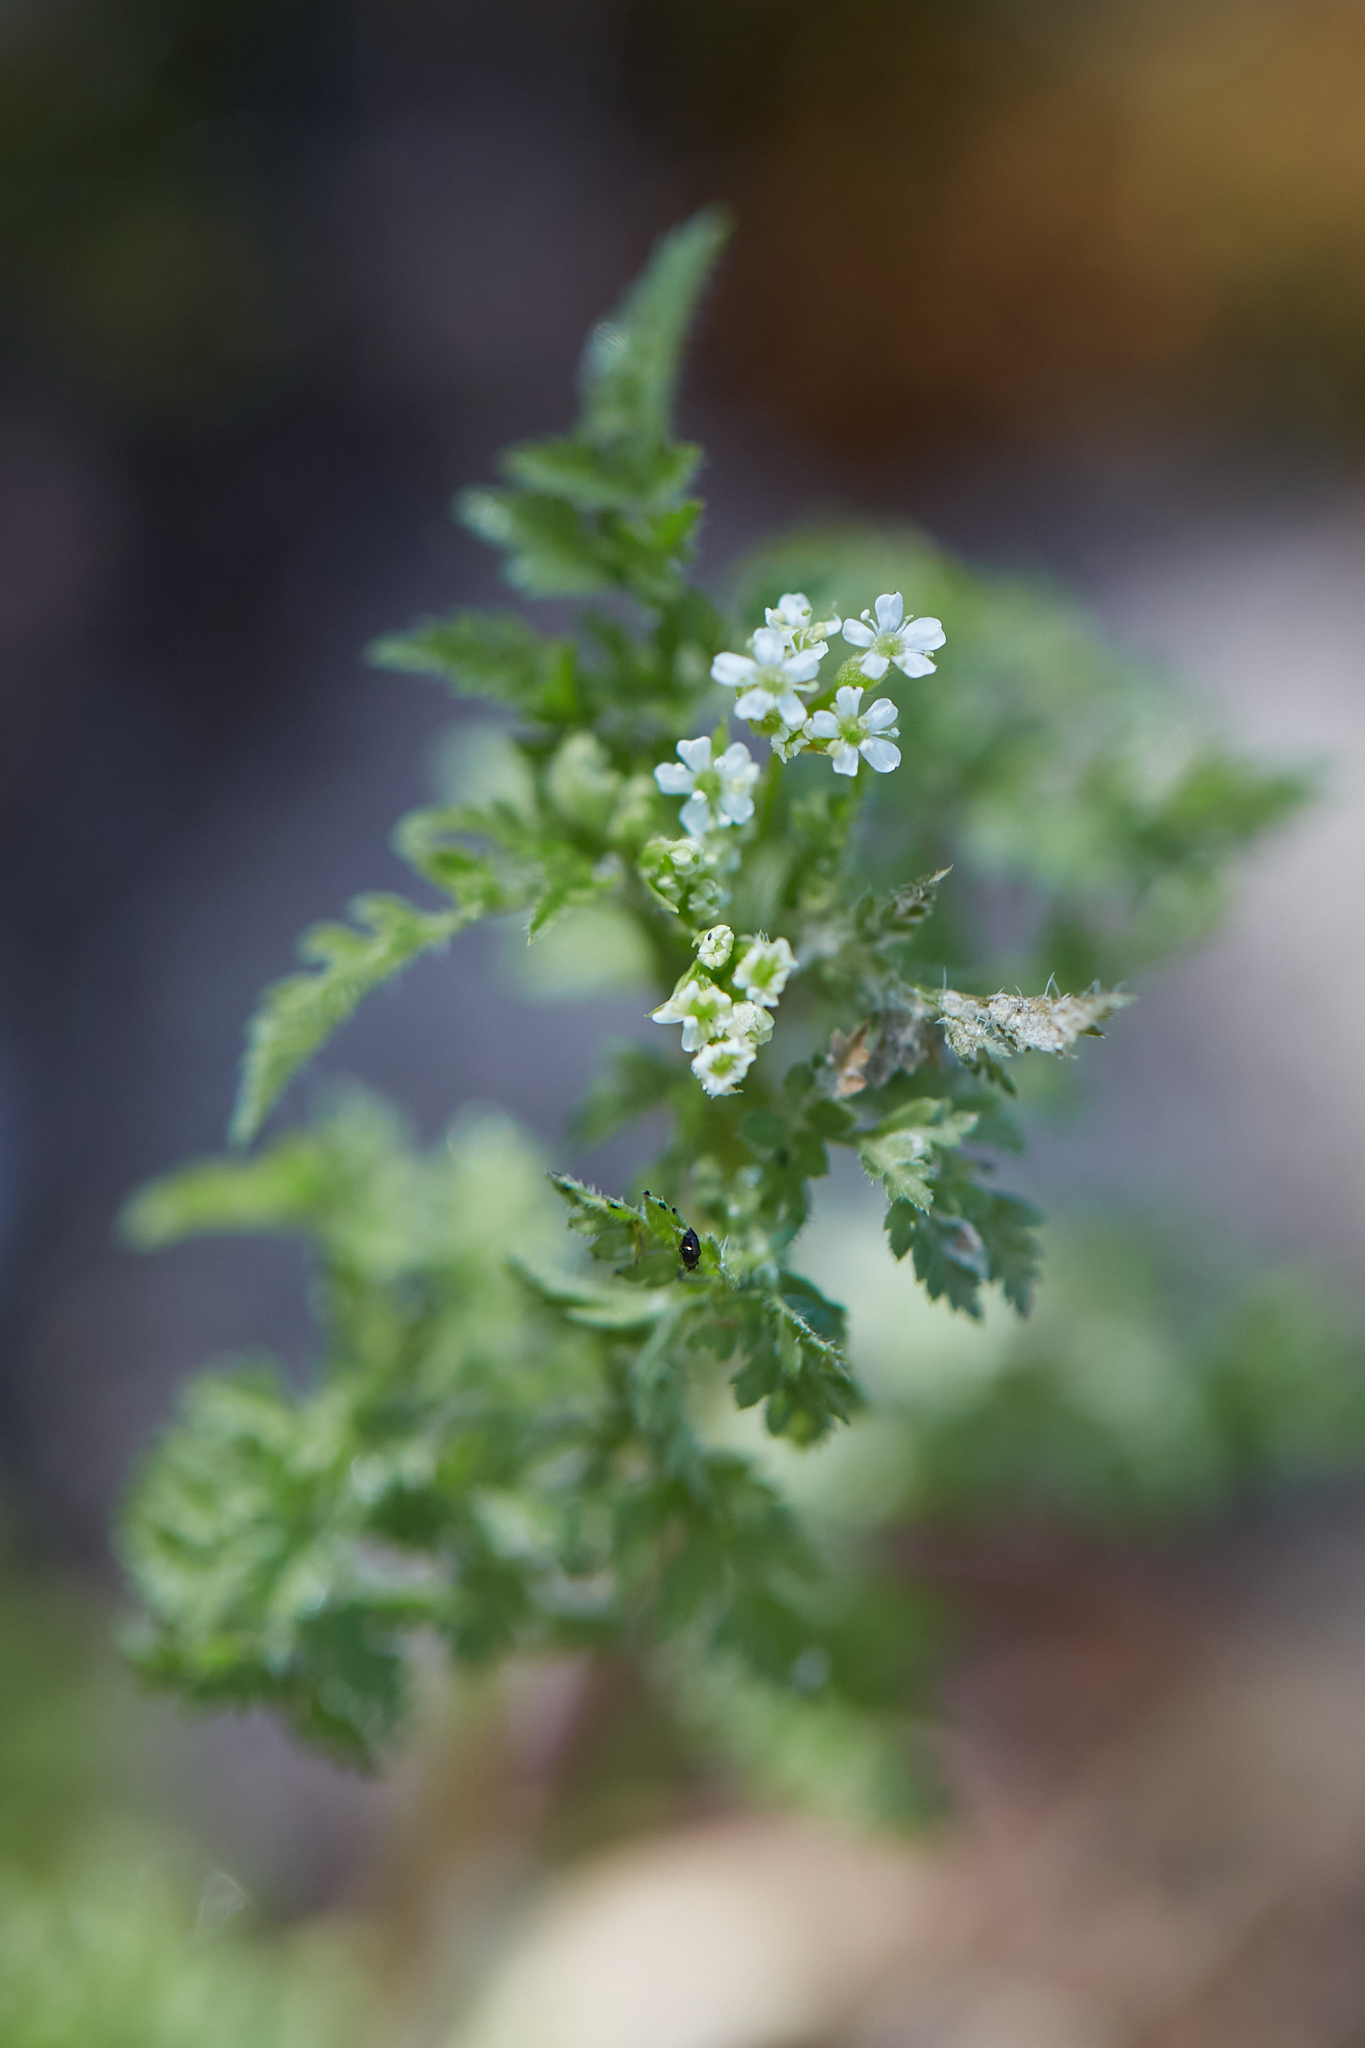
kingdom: Plantae
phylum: Tracheophyta
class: Magnoliopsida
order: Apiales
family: Apiaceae
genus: Torilis
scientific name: Torilis nodosa
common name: Knotted hedge-parsley
